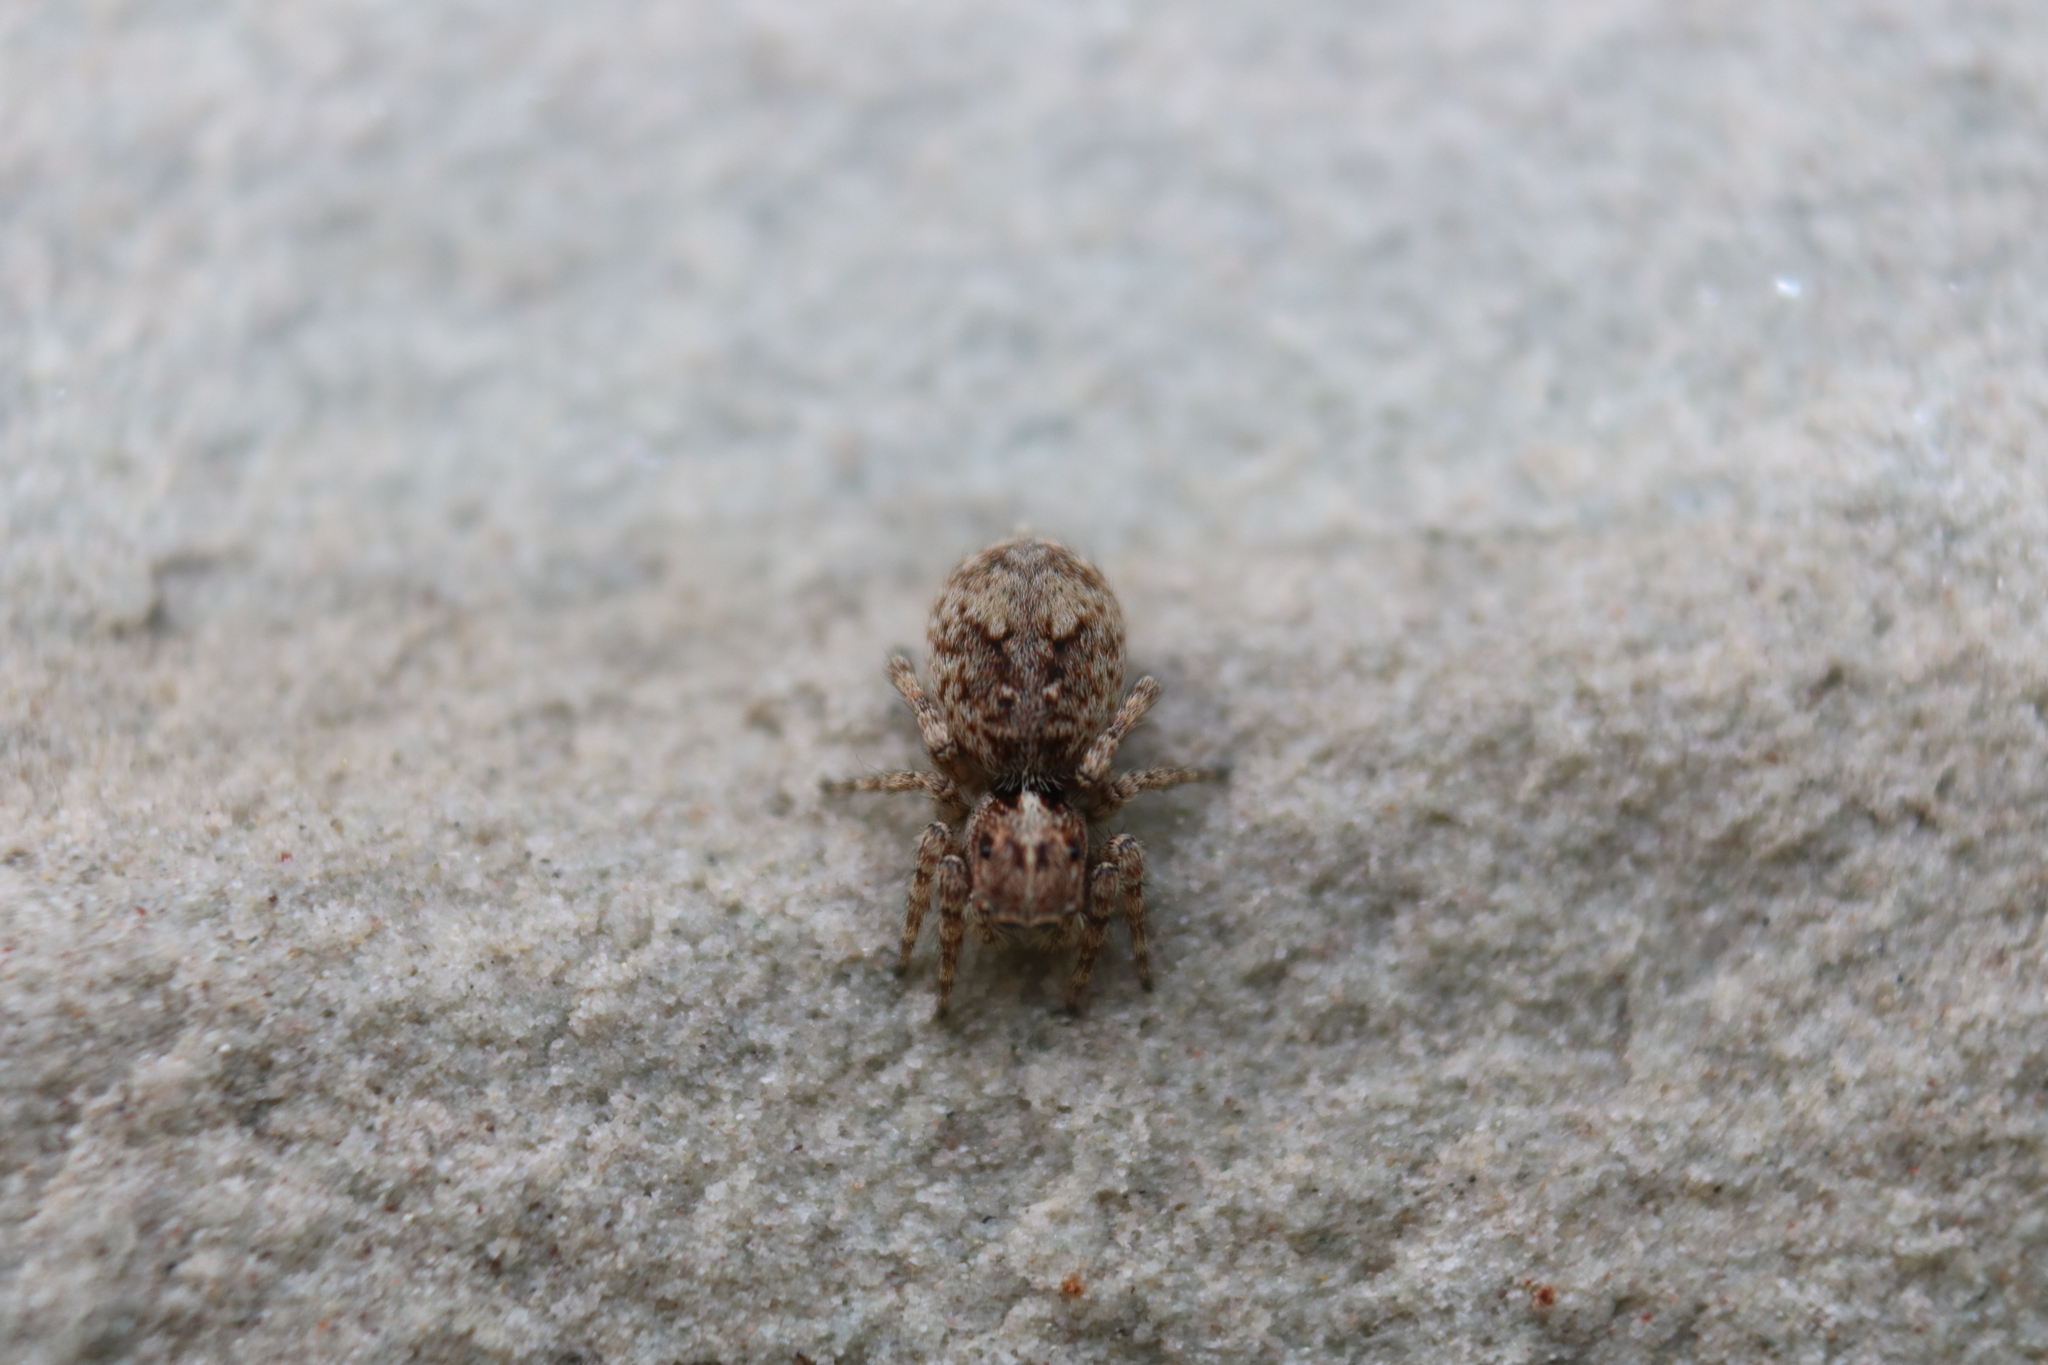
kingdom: Animalia
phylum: Arthropoda
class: Arachnida
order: Araneae
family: Salticidae
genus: Attulus
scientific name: Attulus fasciger
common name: Asiatic wall jumping spider
